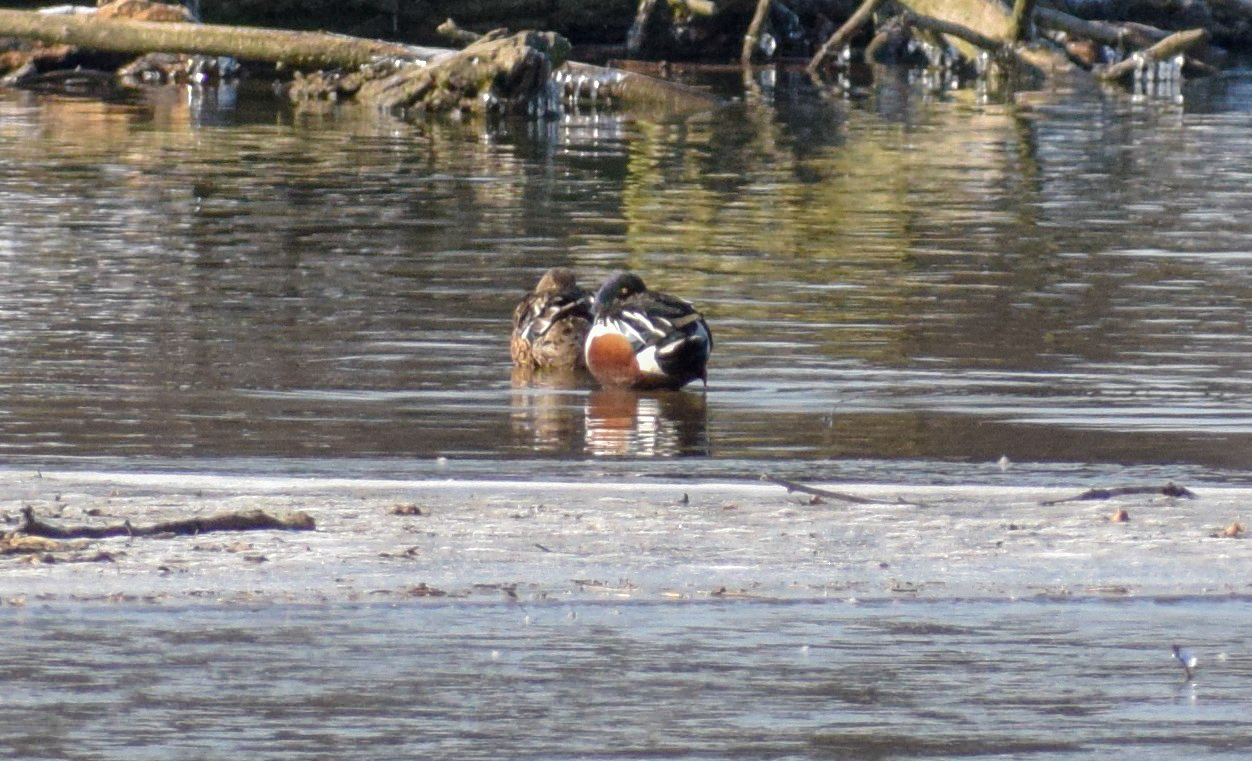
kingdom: Animalia
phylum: Chordata
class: Aves
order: Anseriformes
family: Anatidae
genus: Spatula
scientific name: Spatula clypeata
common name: Northern shoveler
